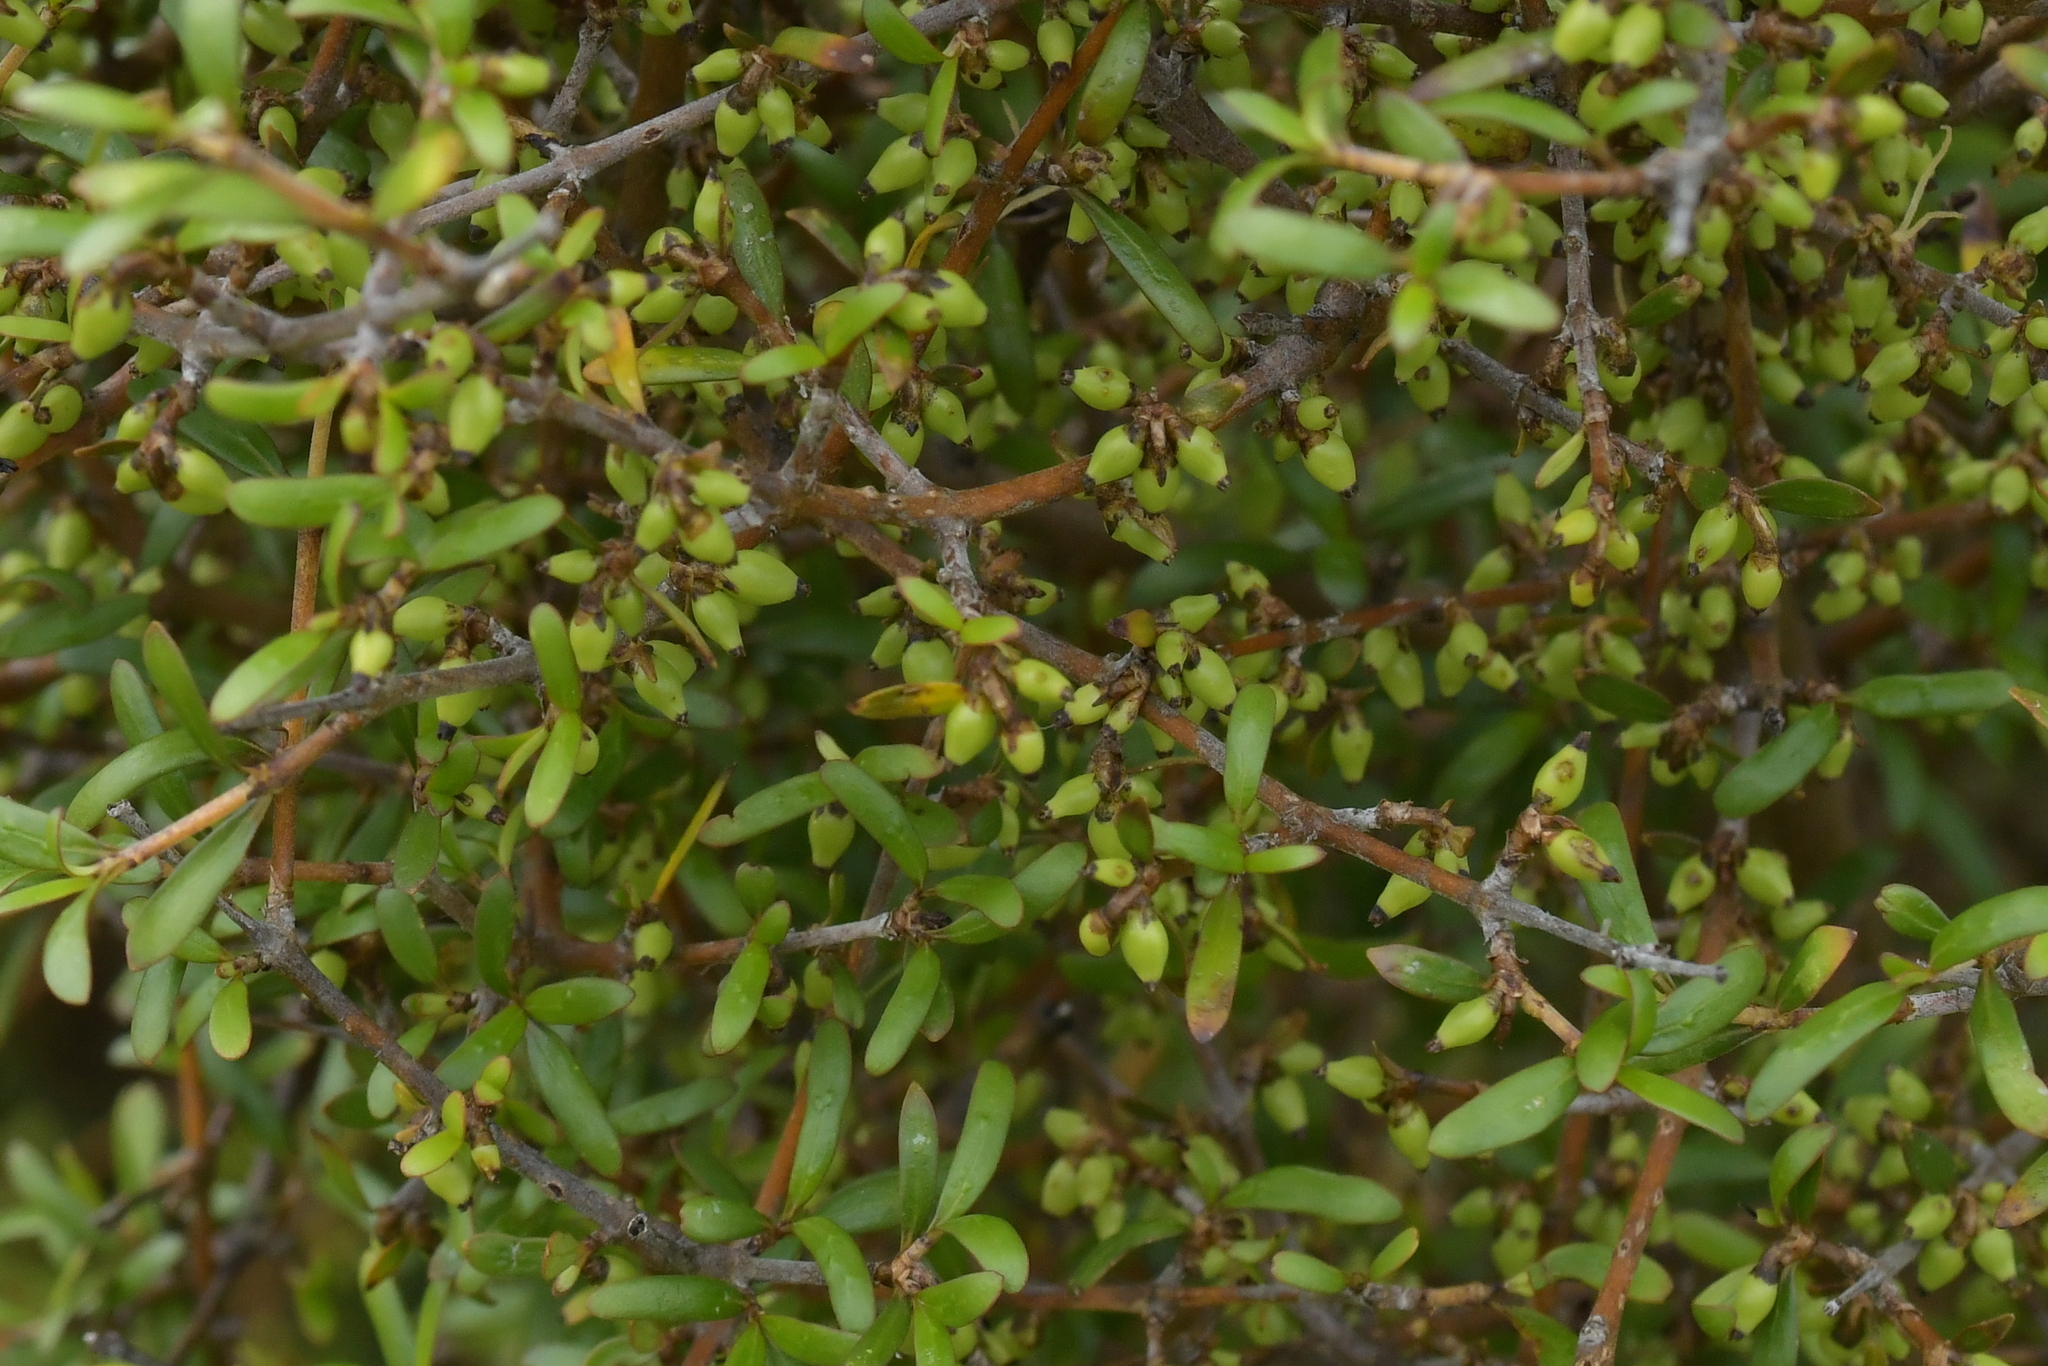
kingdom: Plantae
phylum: Tracheophyta
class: Magnoliopsida
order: Gentianales
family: Rubiaceae
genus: Coprosma
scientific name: Coprosma propinqua
